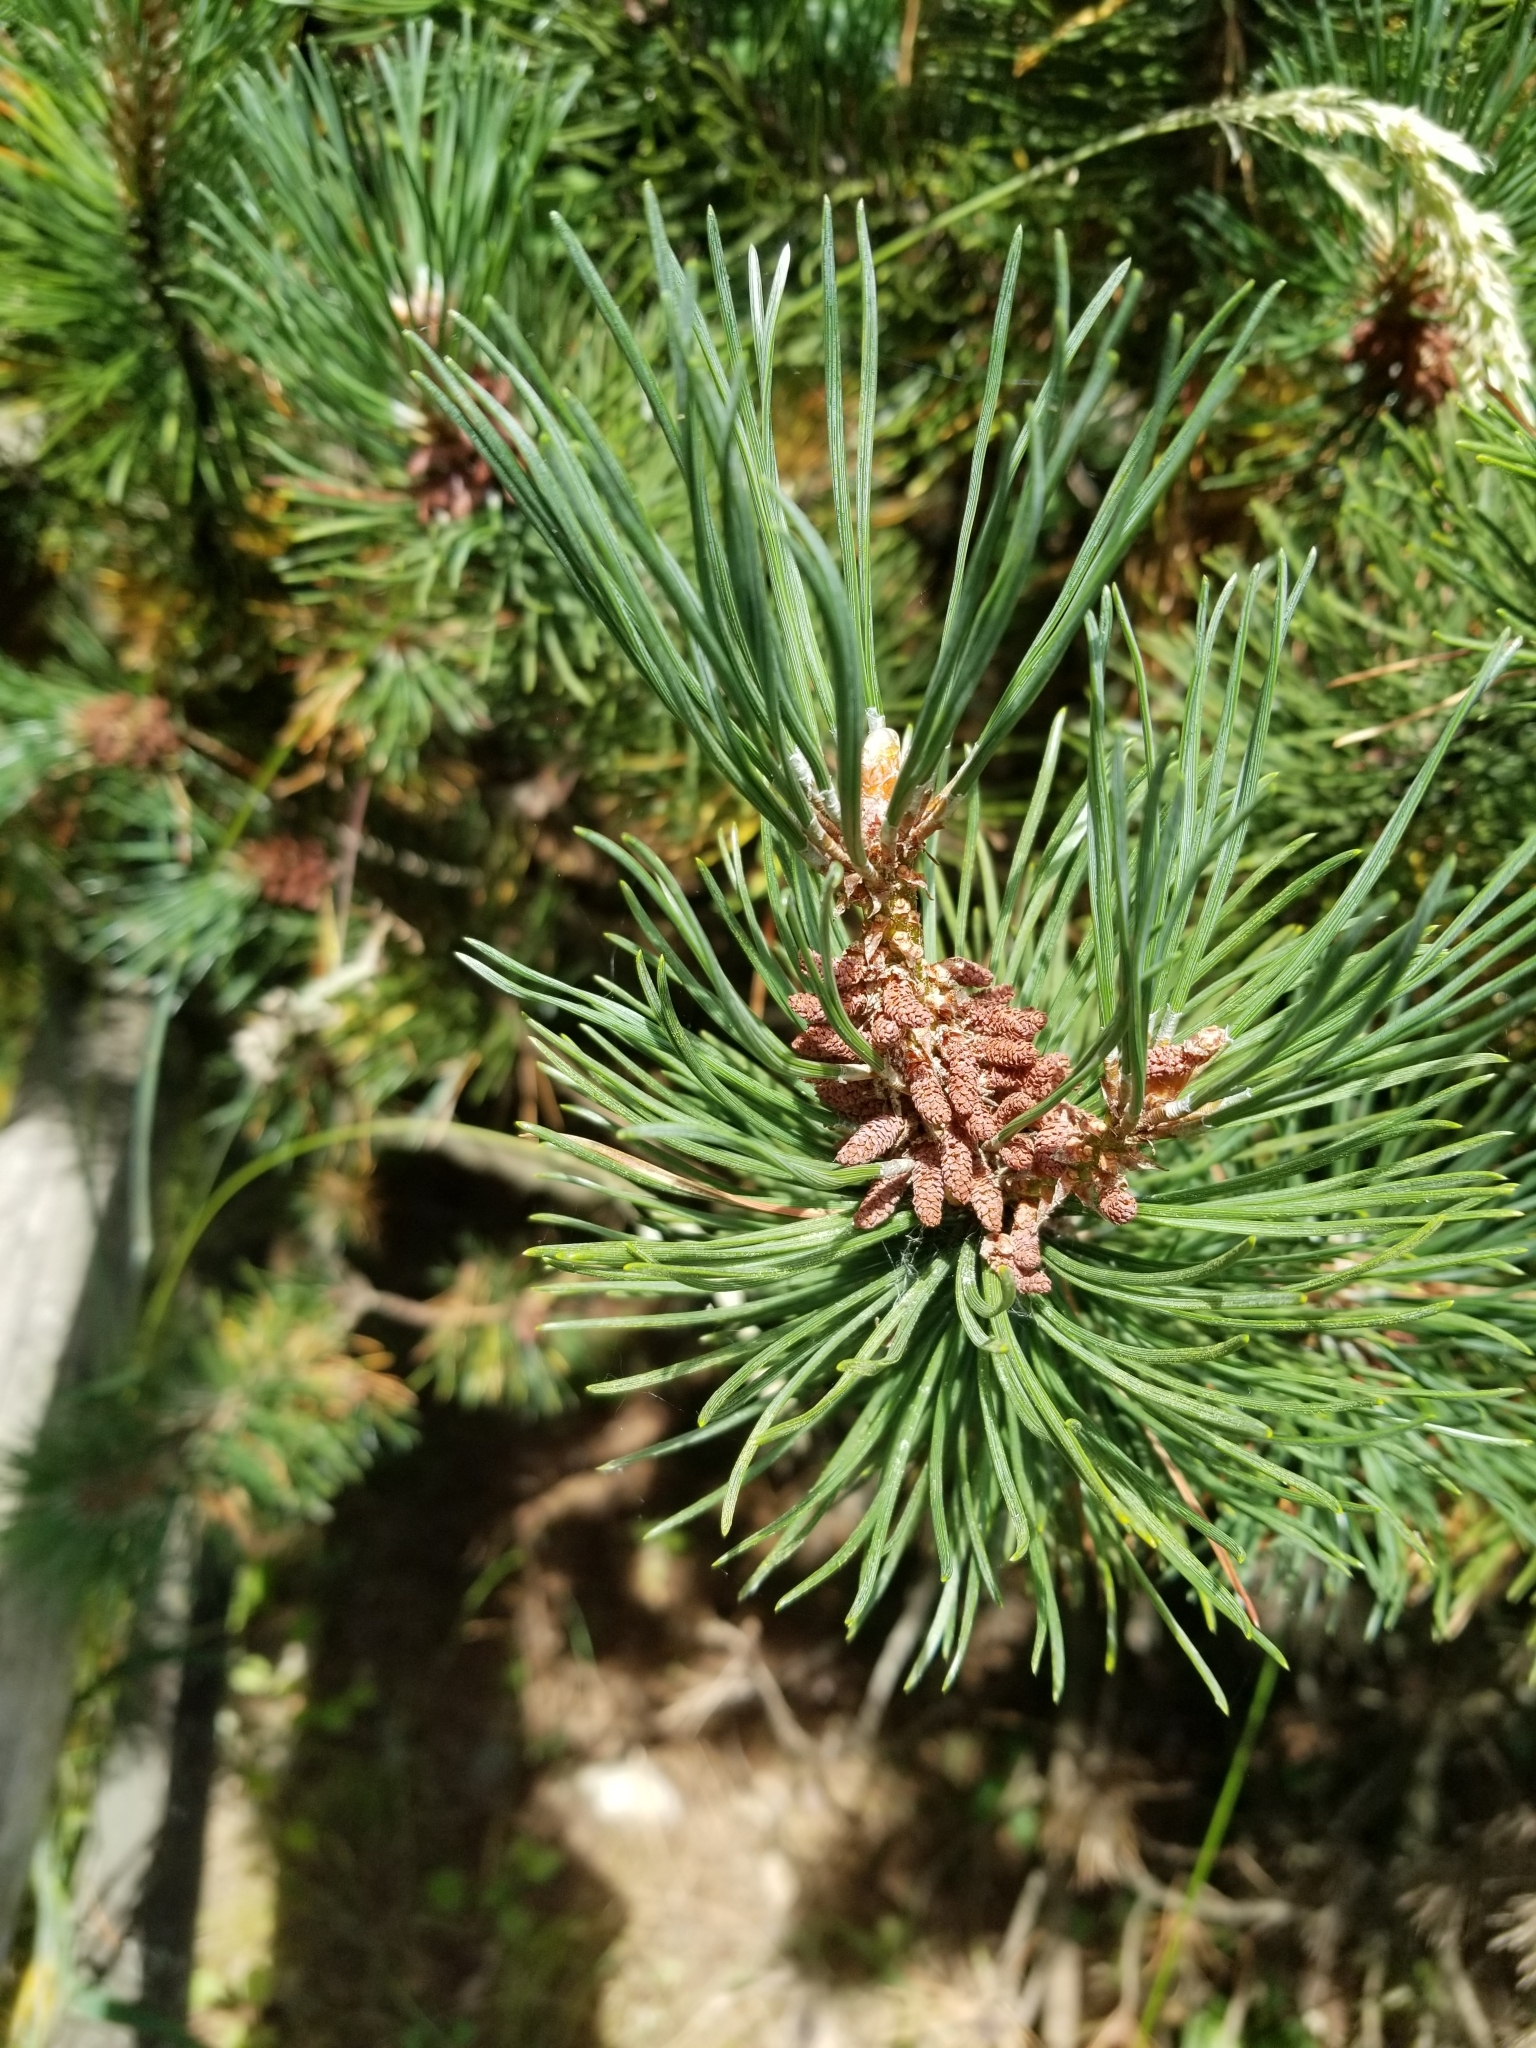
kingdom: Plantae
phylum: Tracheophyta
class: Pinopsida
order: Pinales
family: Pinaceae
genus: Pinus
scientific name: Pinus contorta
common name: Lodgepole pine
